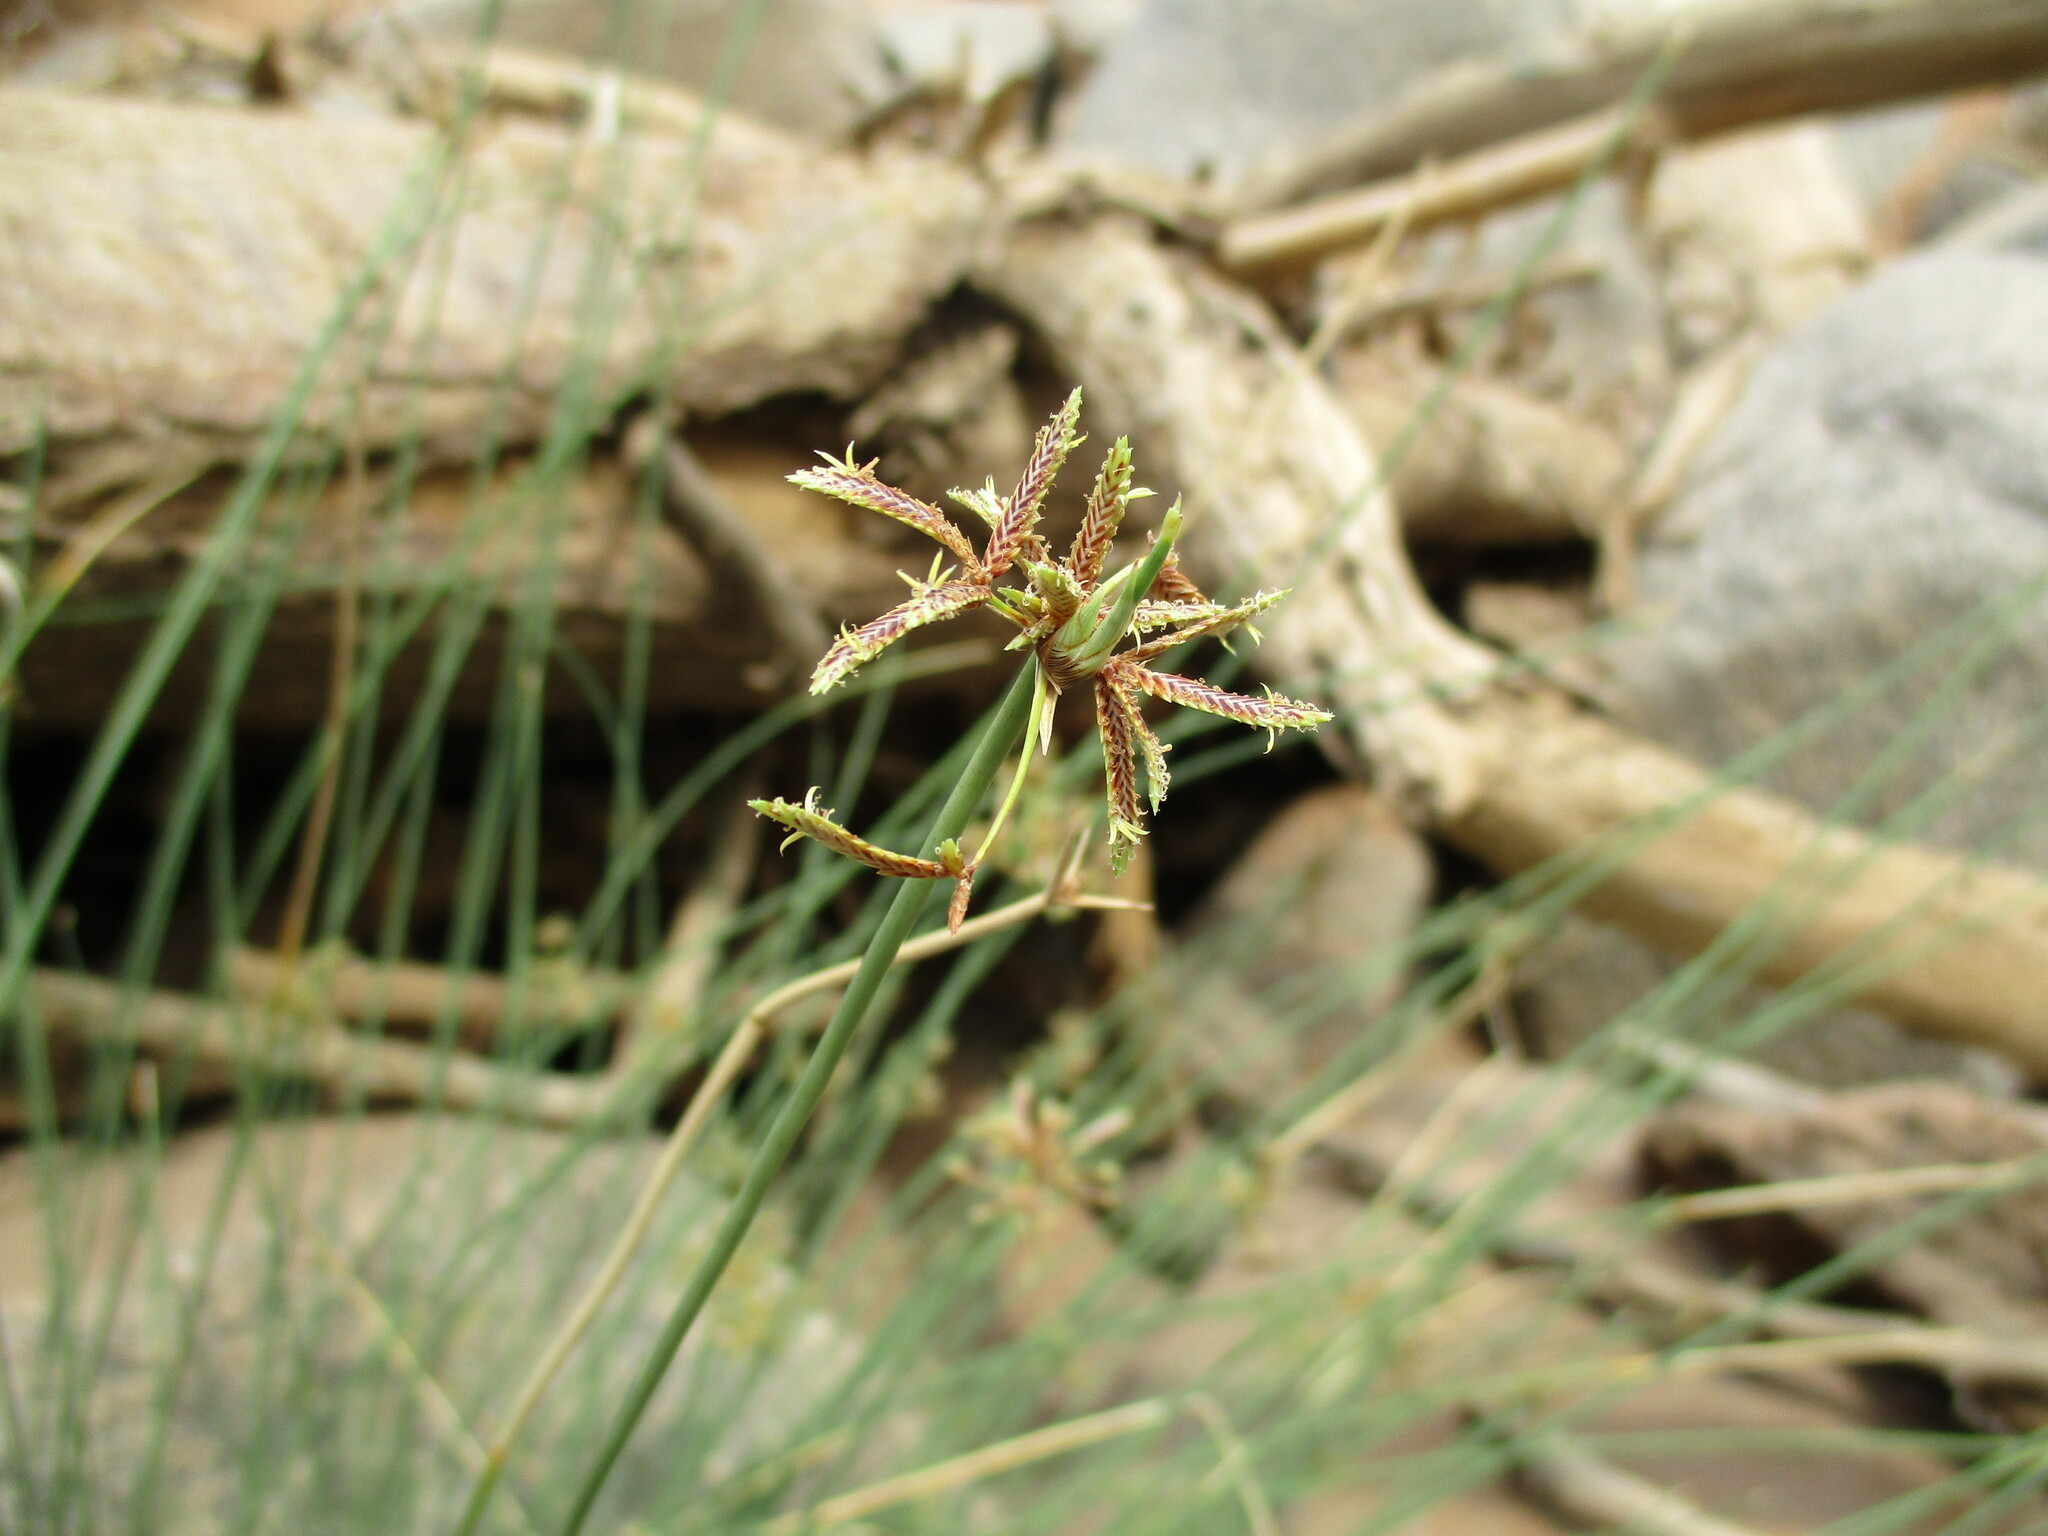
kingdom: Plantae
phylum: Tracheophyta
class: Liliopsida
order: Poales
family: Cyperaceae
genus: Cyperus
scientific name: Cyperus marginatus
